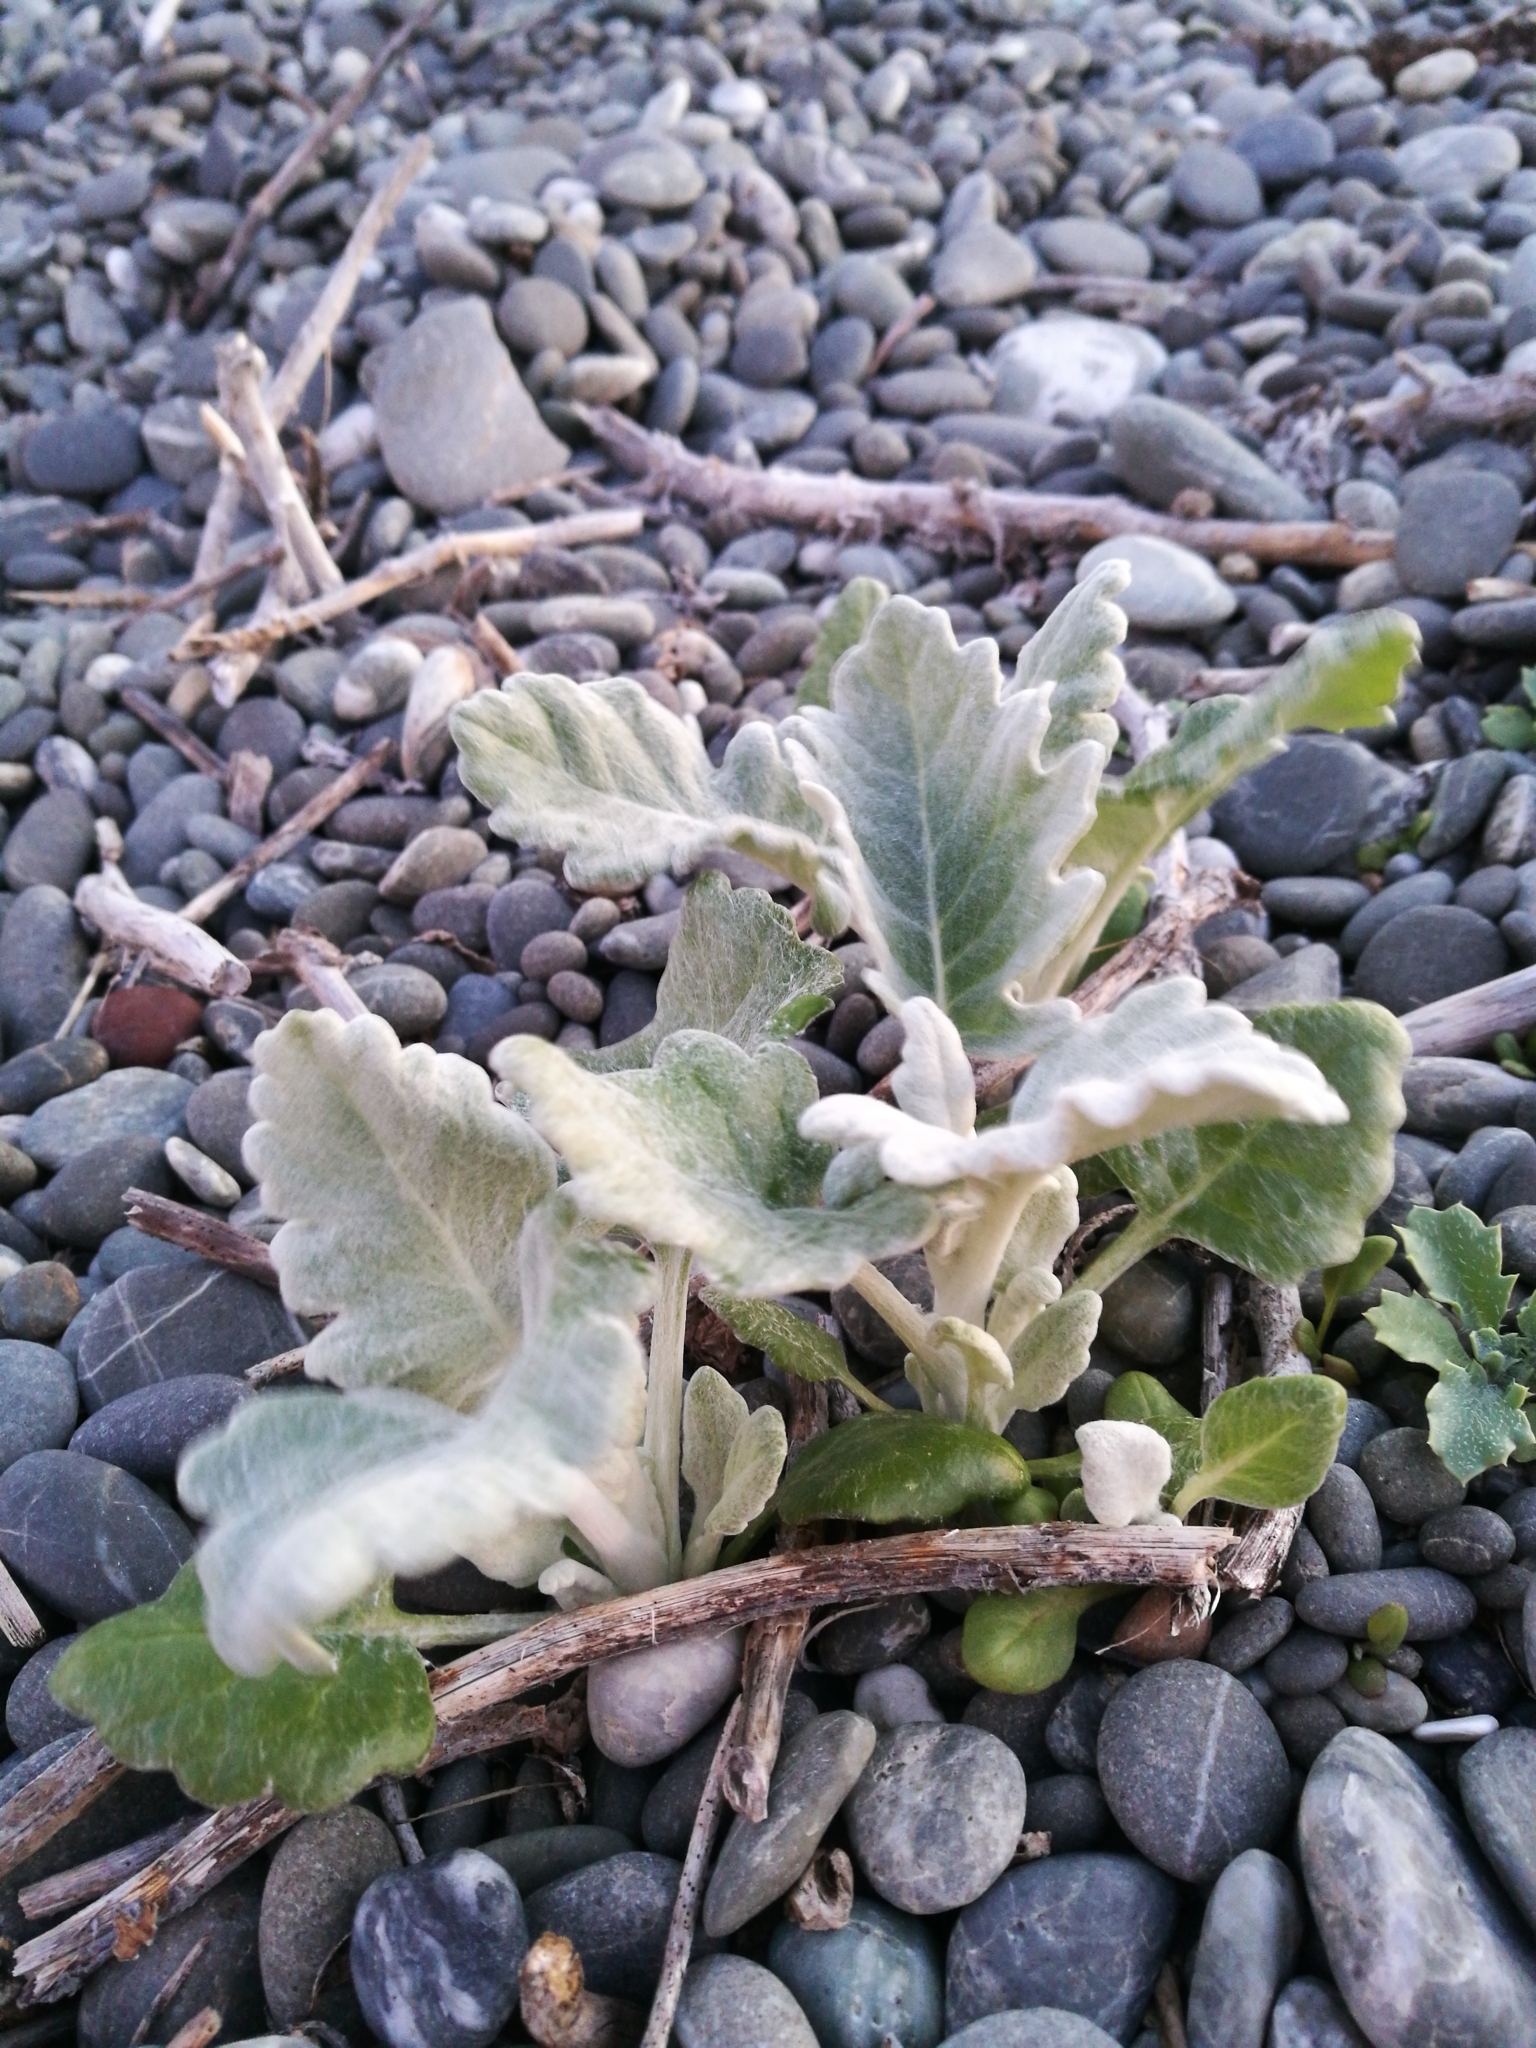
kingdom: Plantae
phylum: Tracheophyta
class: Magnoliopsida
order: Asterales
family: Asteraceae
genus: Jacobaea
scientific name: Jacobaea maritima
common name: Silver ragwort
